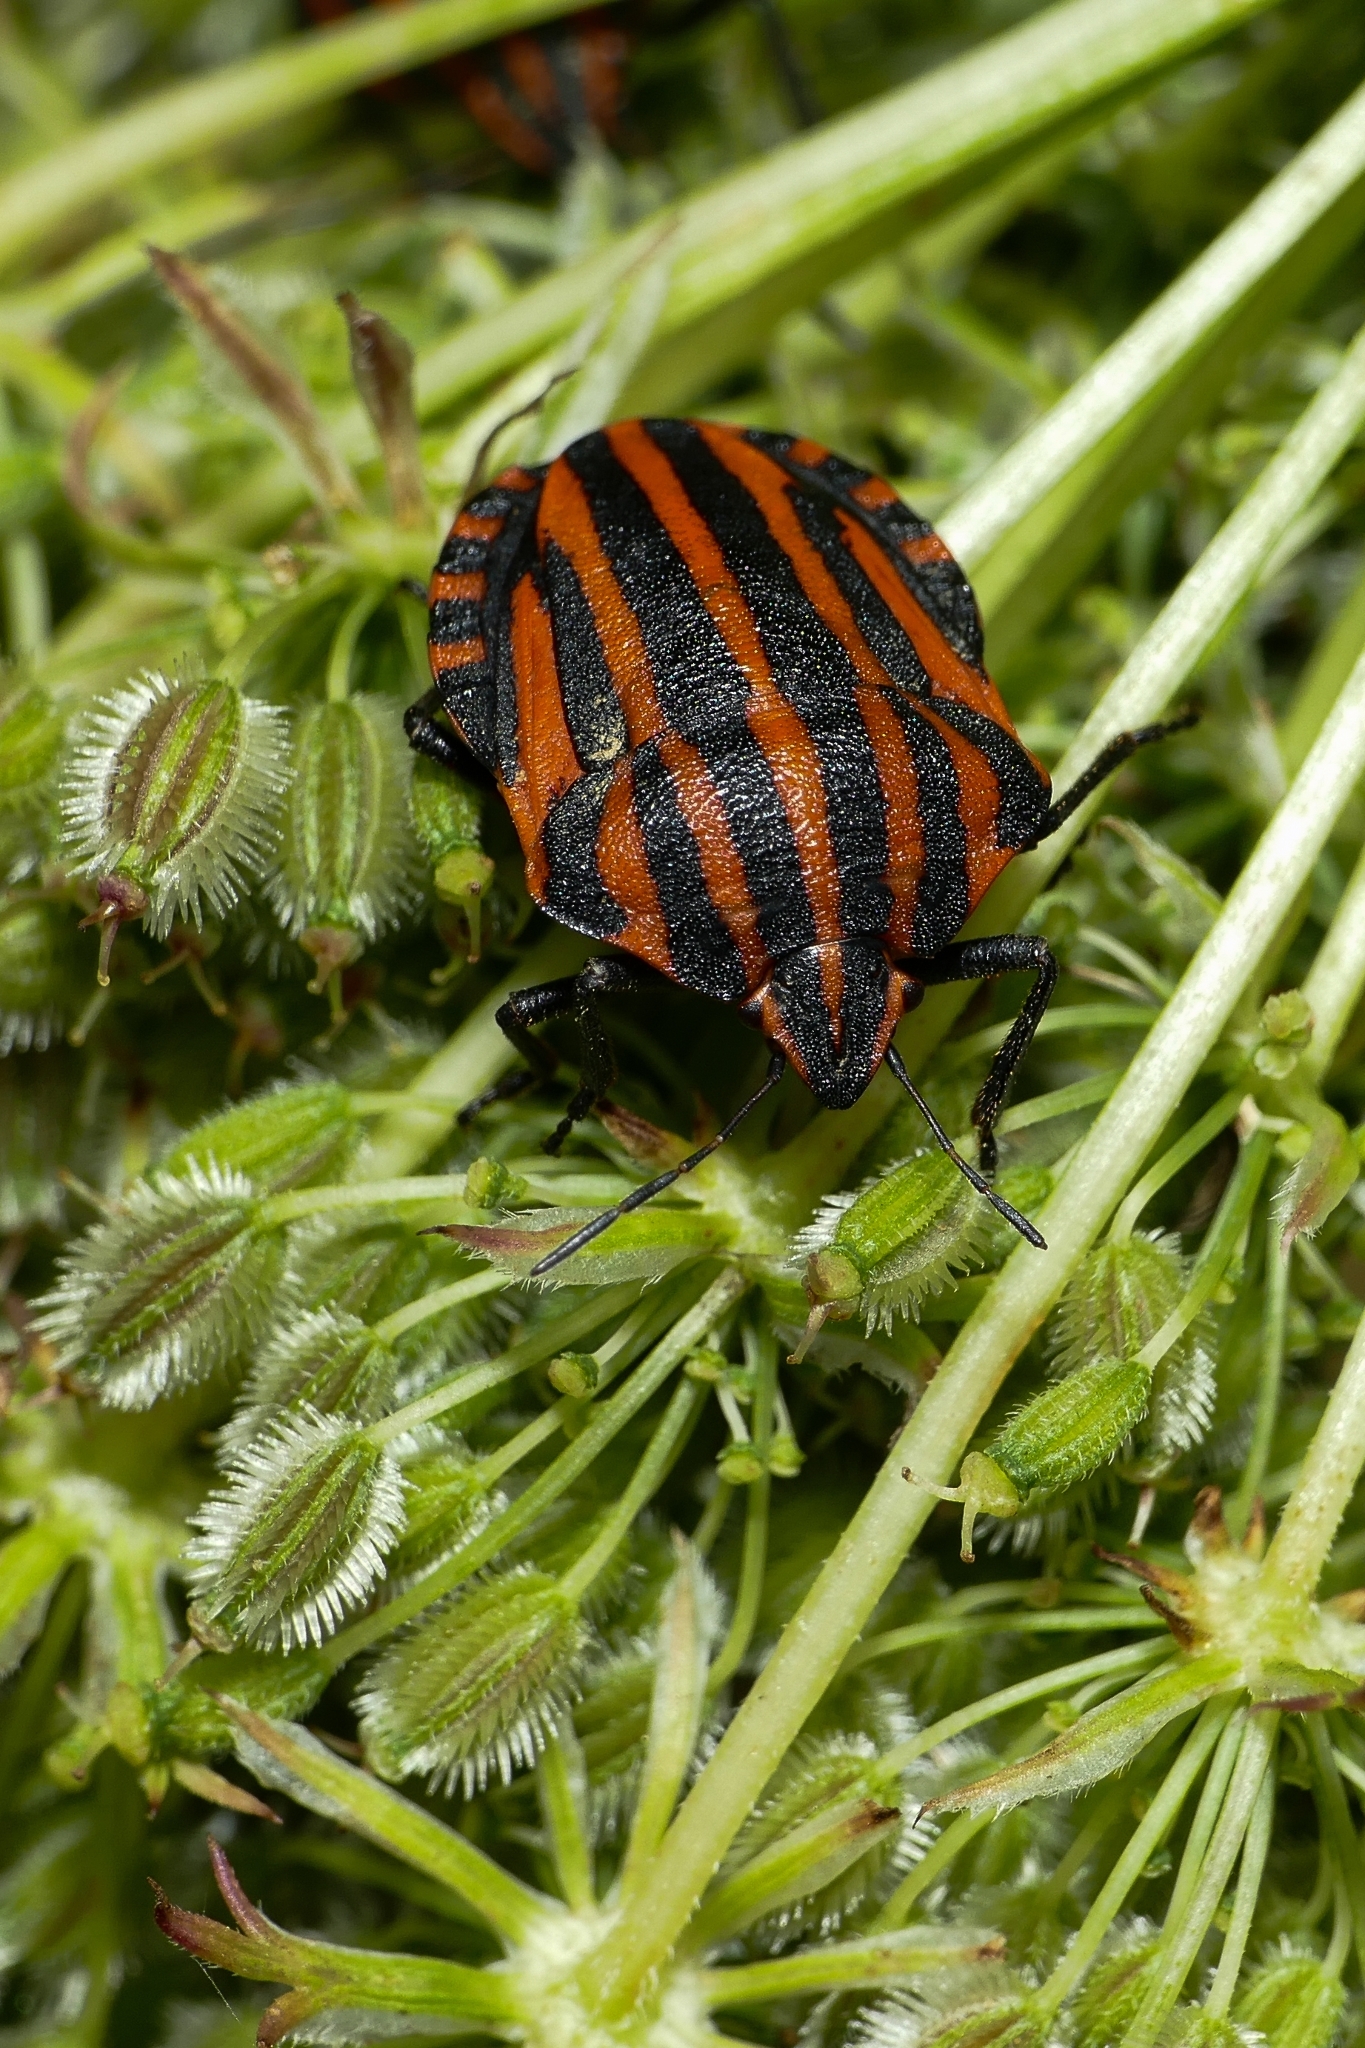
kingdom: Animalia
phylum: Arthropoda
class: Insecta
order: Hemiptera
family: Pentatomidae
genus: Graphosoma
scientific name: Graphosoma italicum
